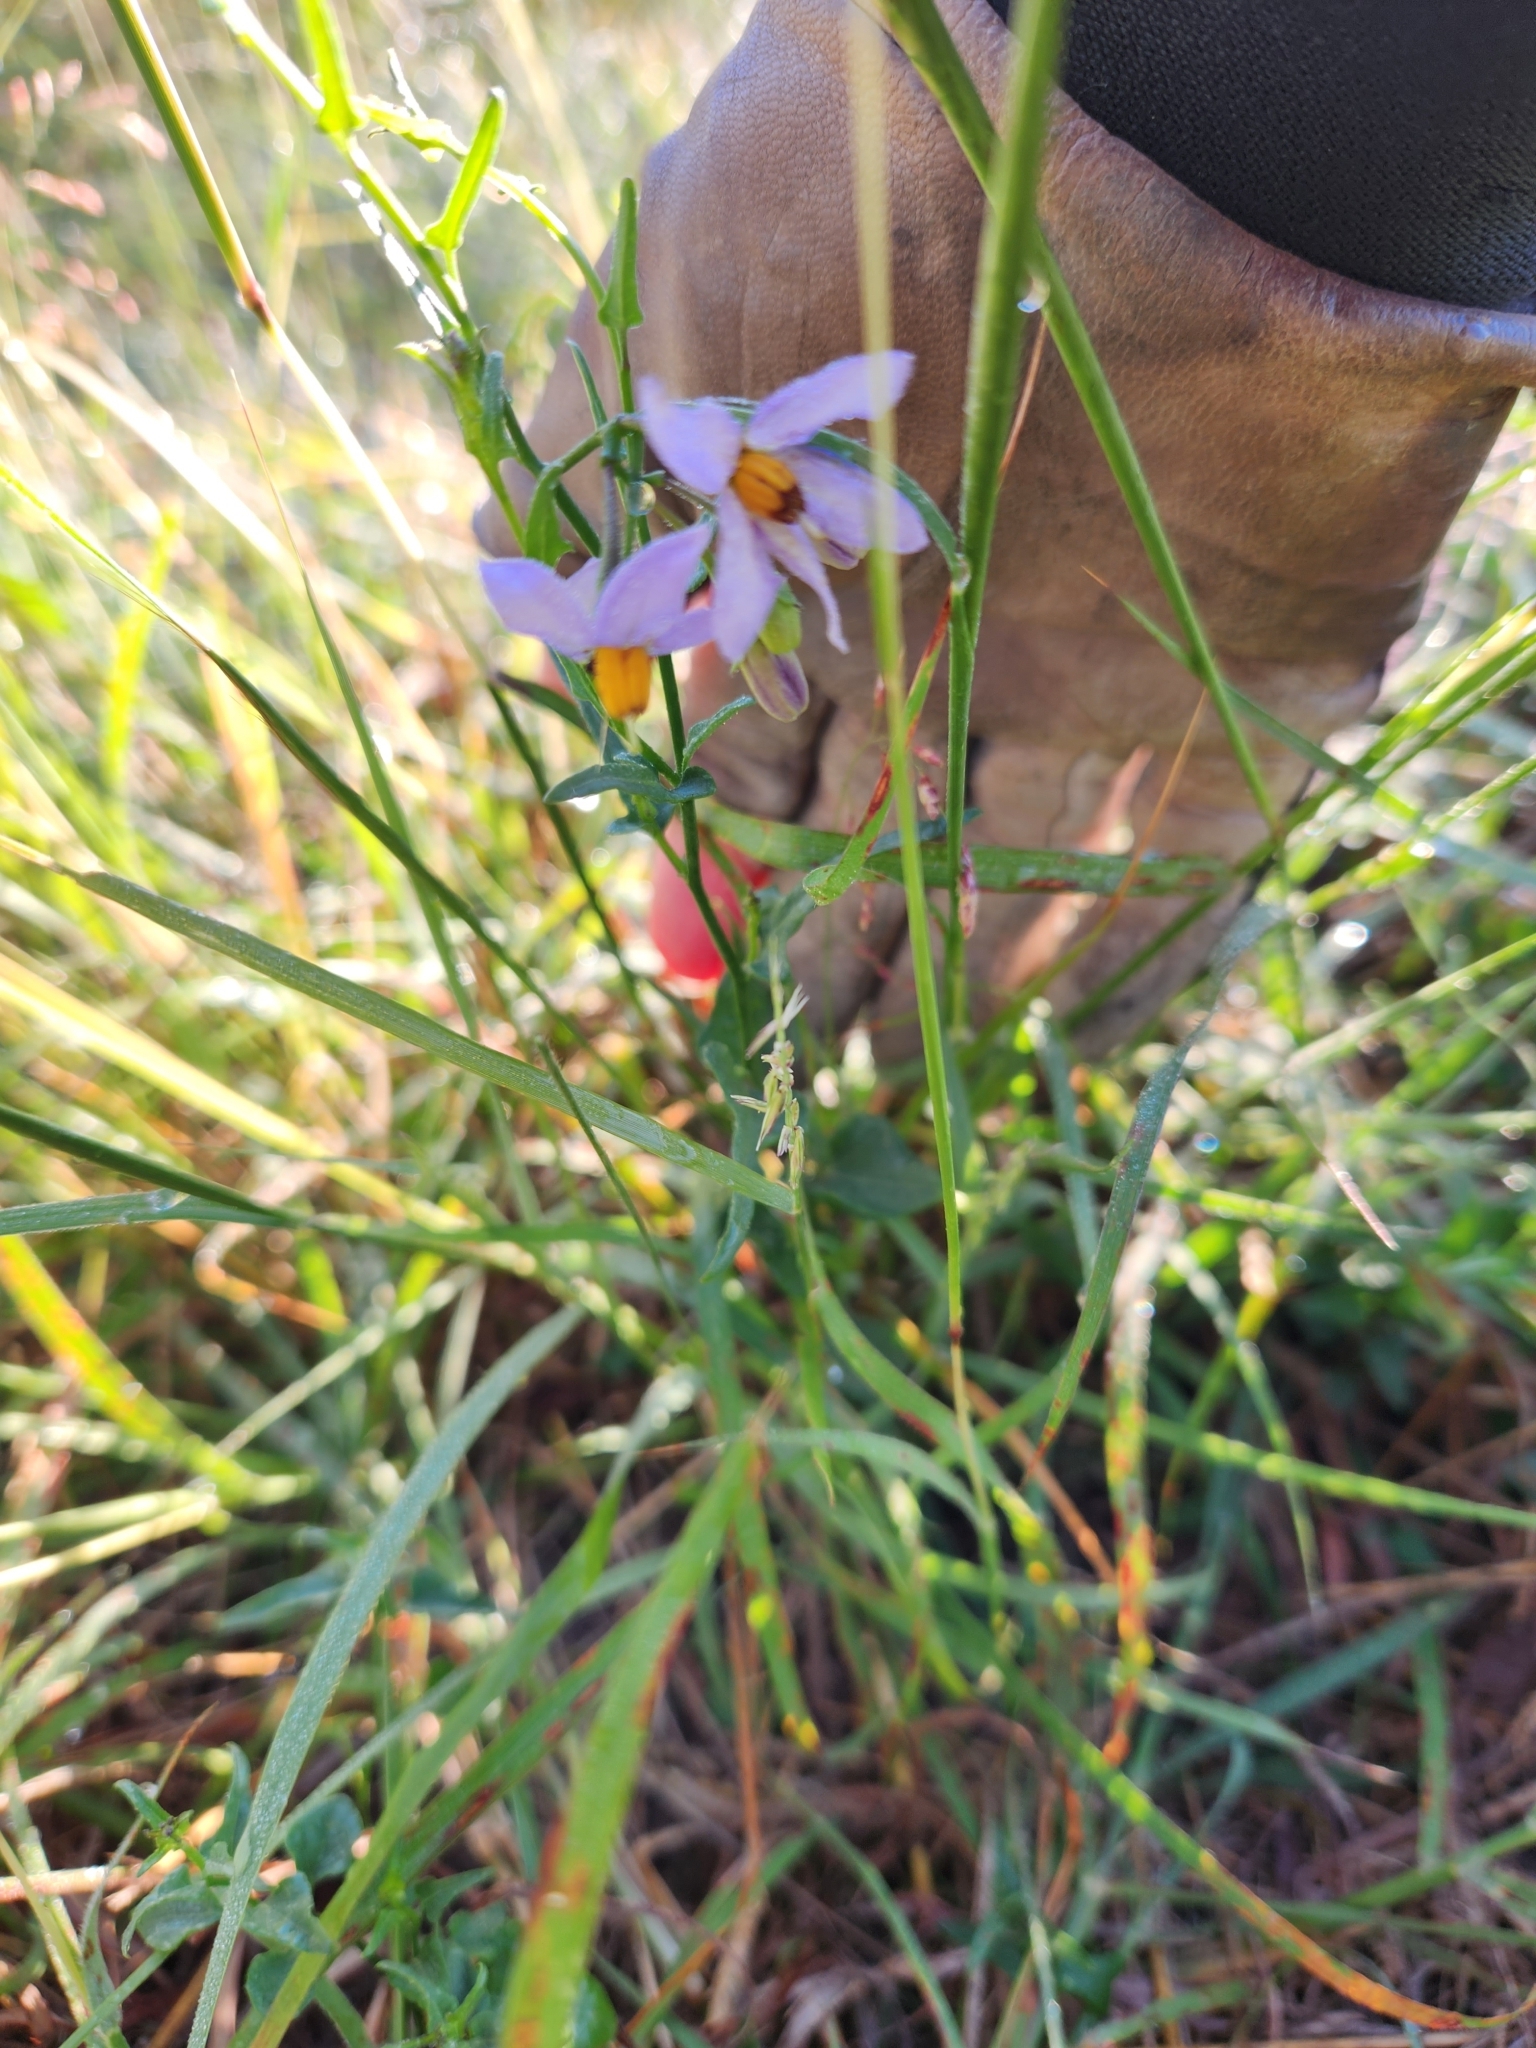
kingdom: Plantae
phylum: Tracheophyta
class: Magnoliopsida
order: Solanales
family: Solanaceae
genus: Solanum
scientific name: Solanum triquetrum
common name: Texas nightshade
